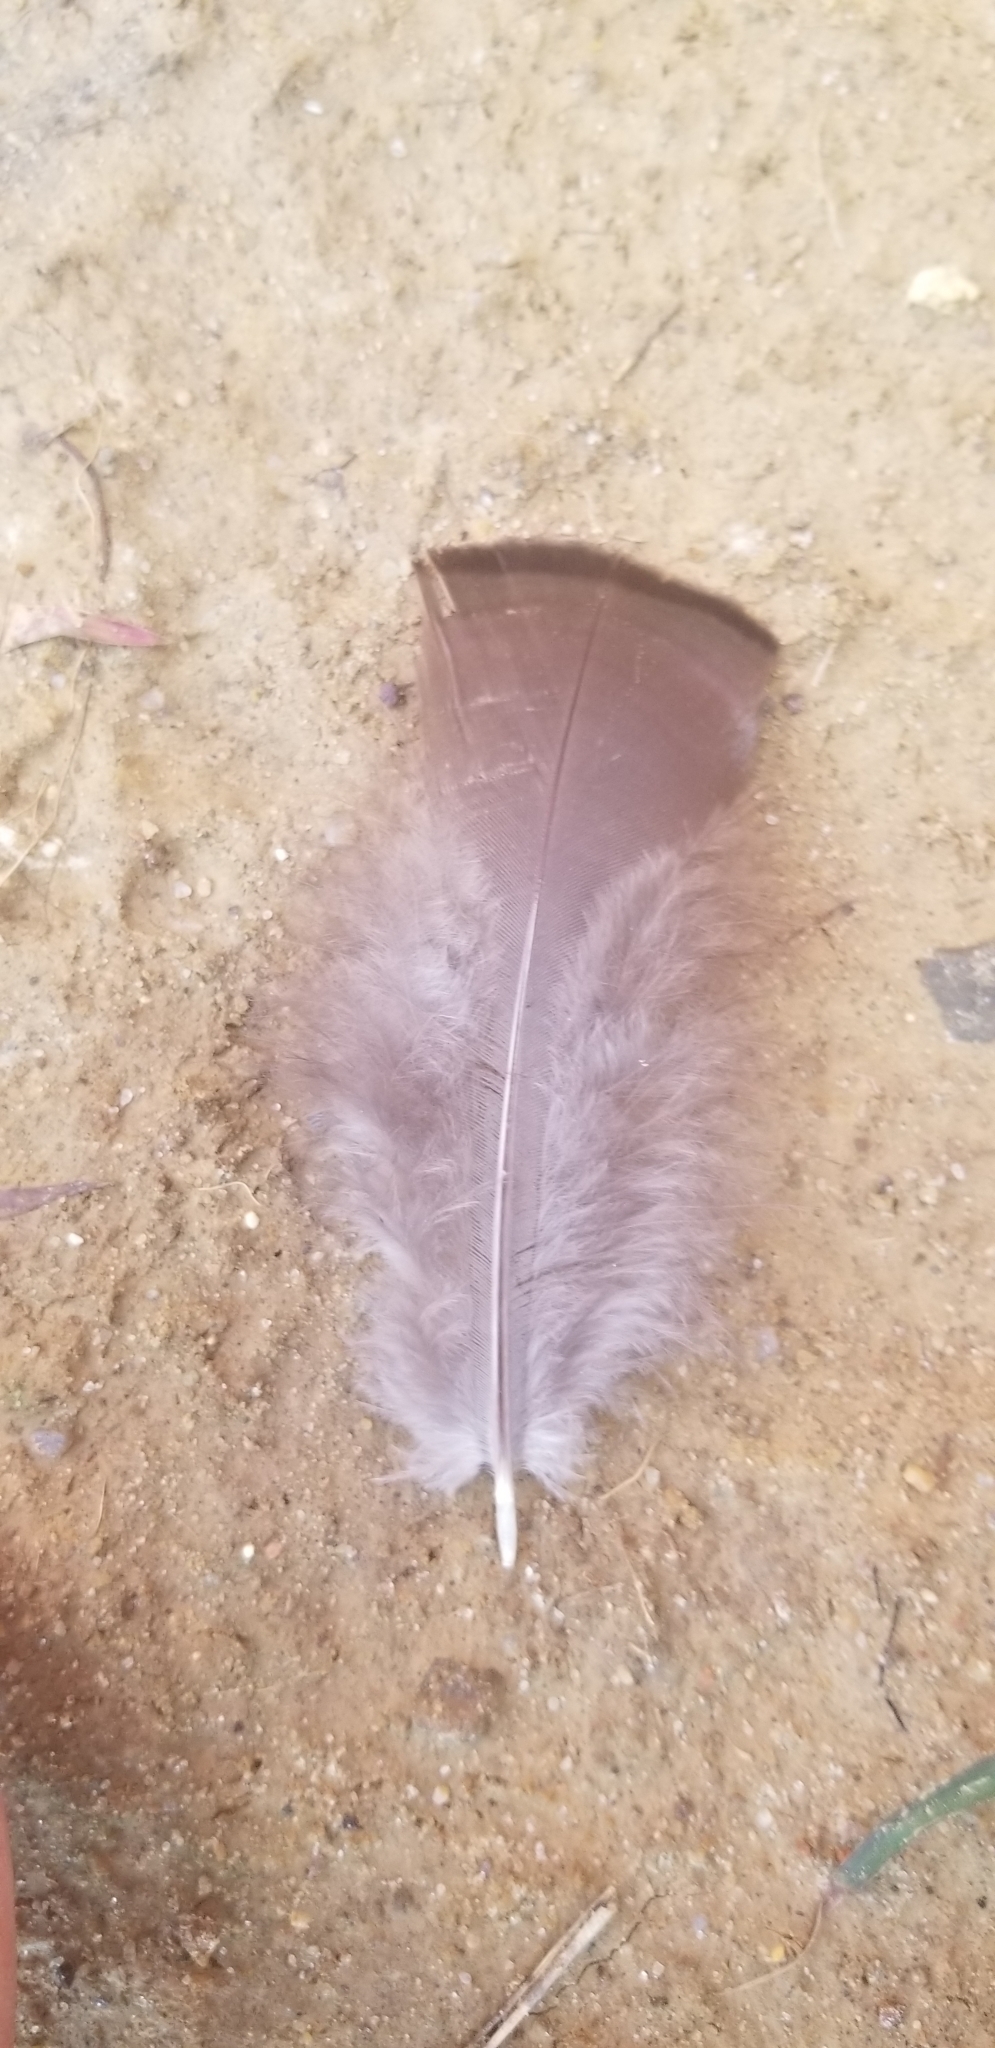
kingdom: Animalia
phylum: Chordata
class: Aves
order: Galliformes
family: Phasianidae
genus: Meleagris
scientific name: Meleagris gallopavo
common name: Wild turkey
